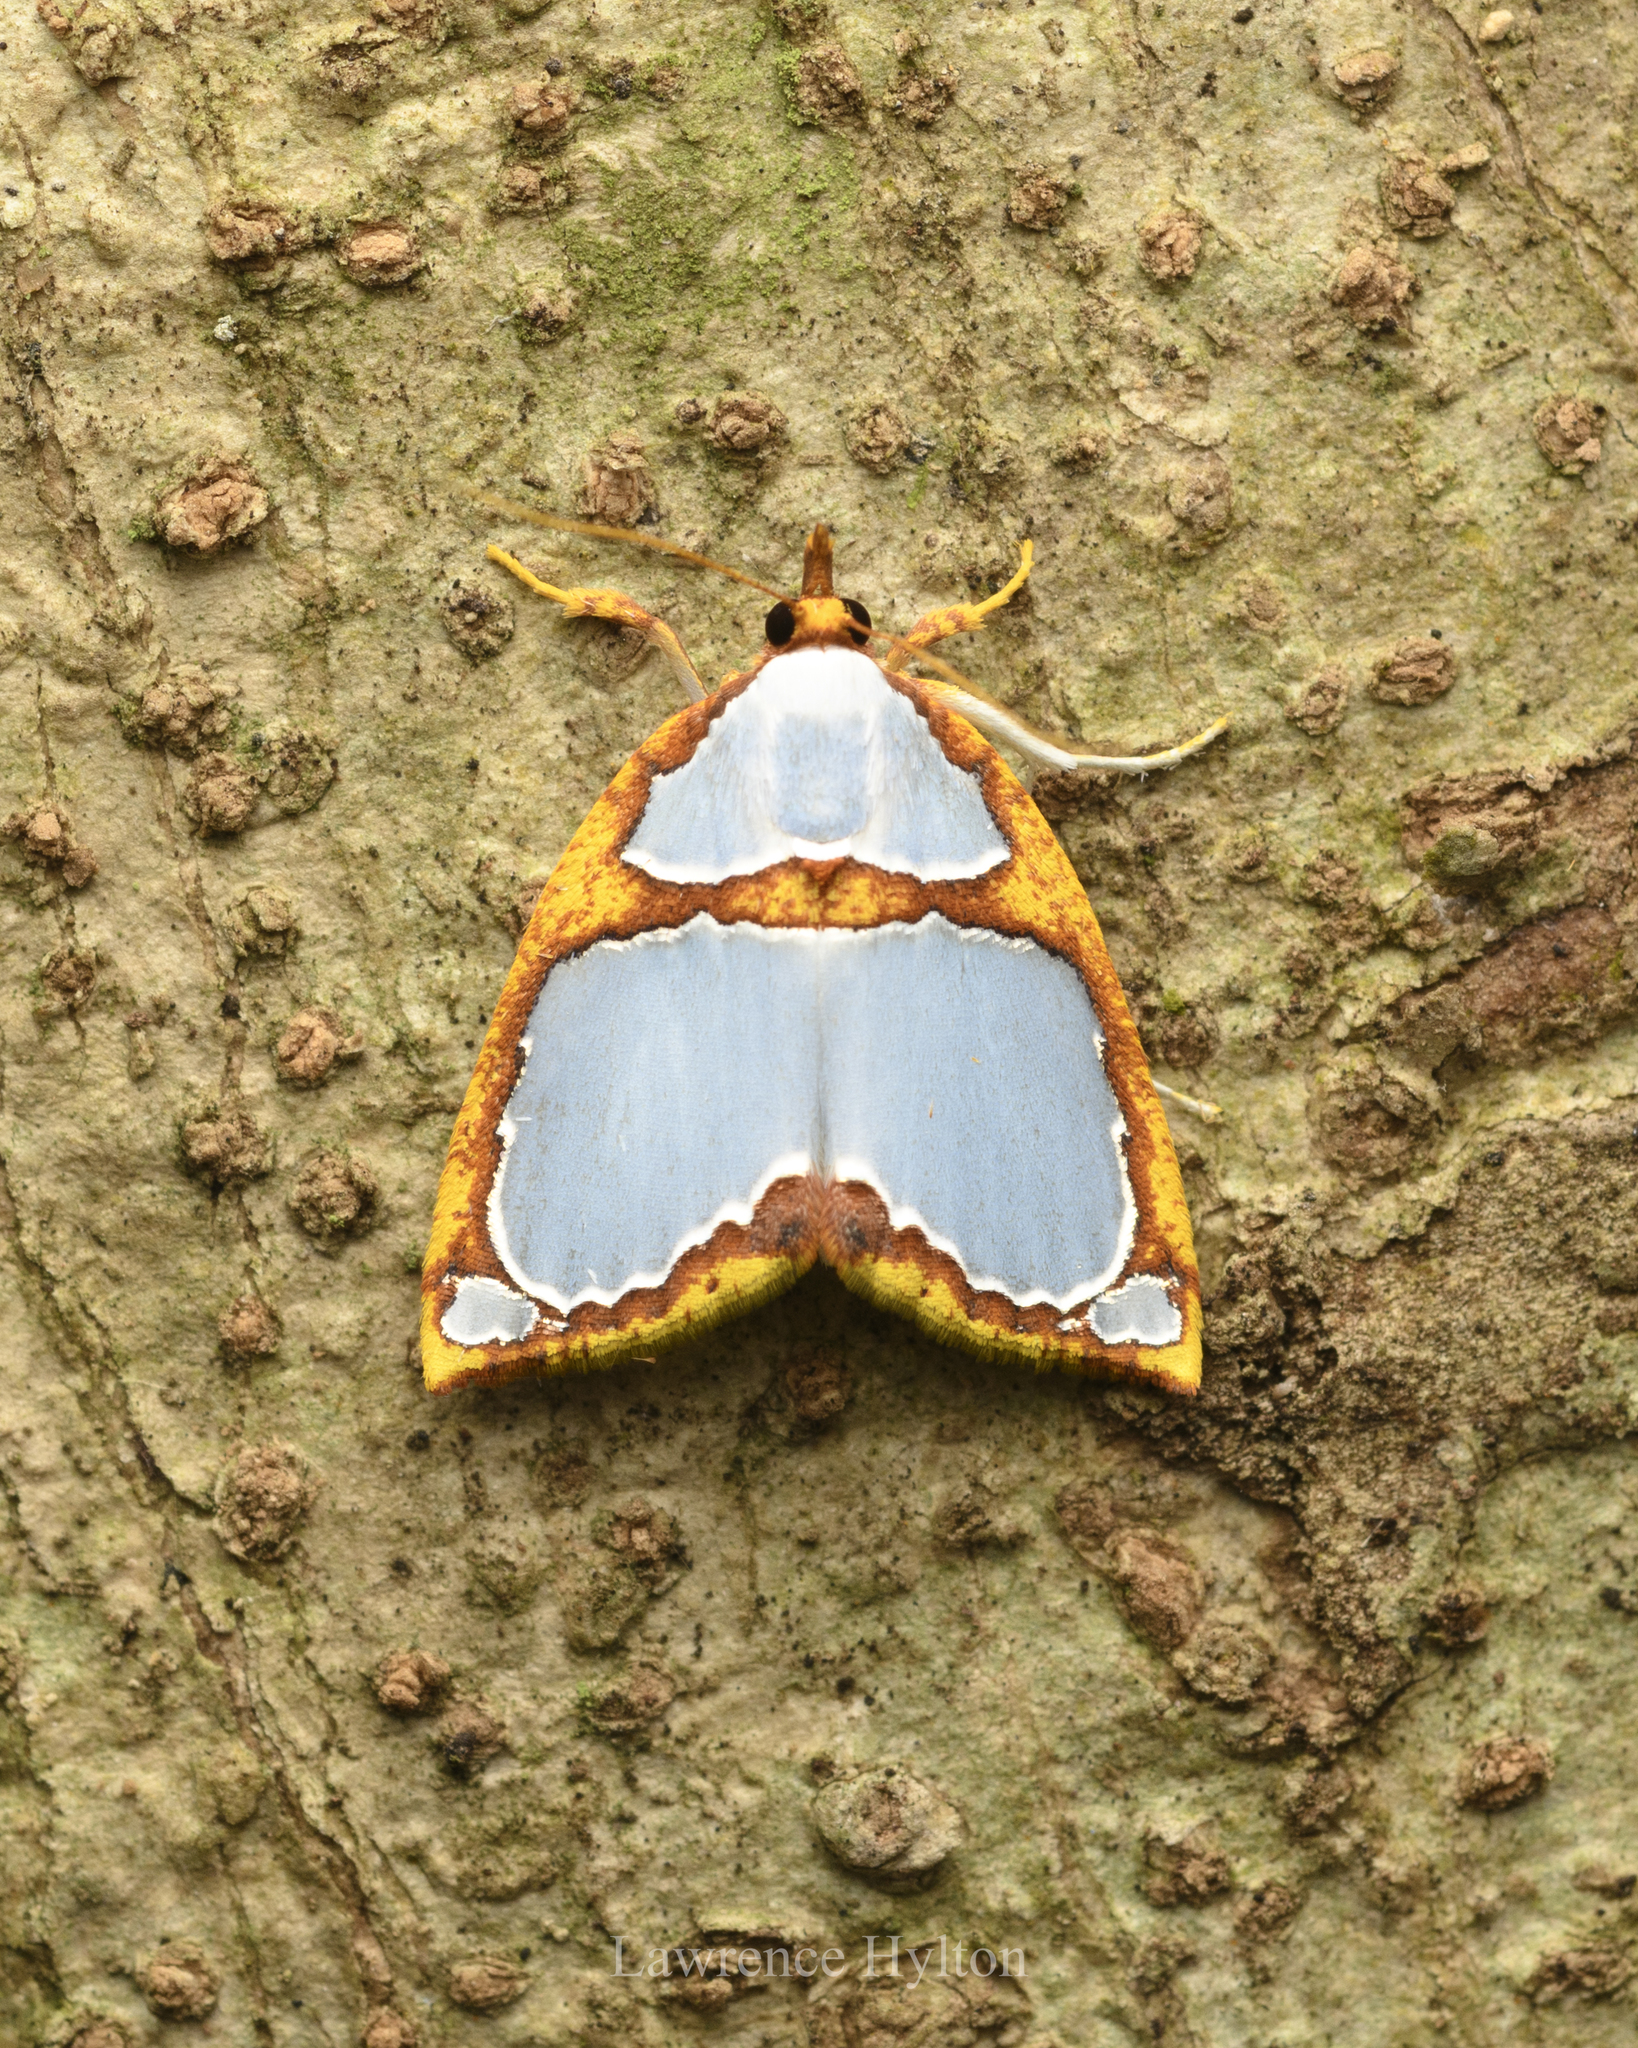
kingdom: Animalia
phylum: Arthropoda
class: Insecta
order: Lepidoptera
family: Nolidae
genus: Titulcia
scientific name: Titulcia confictella
